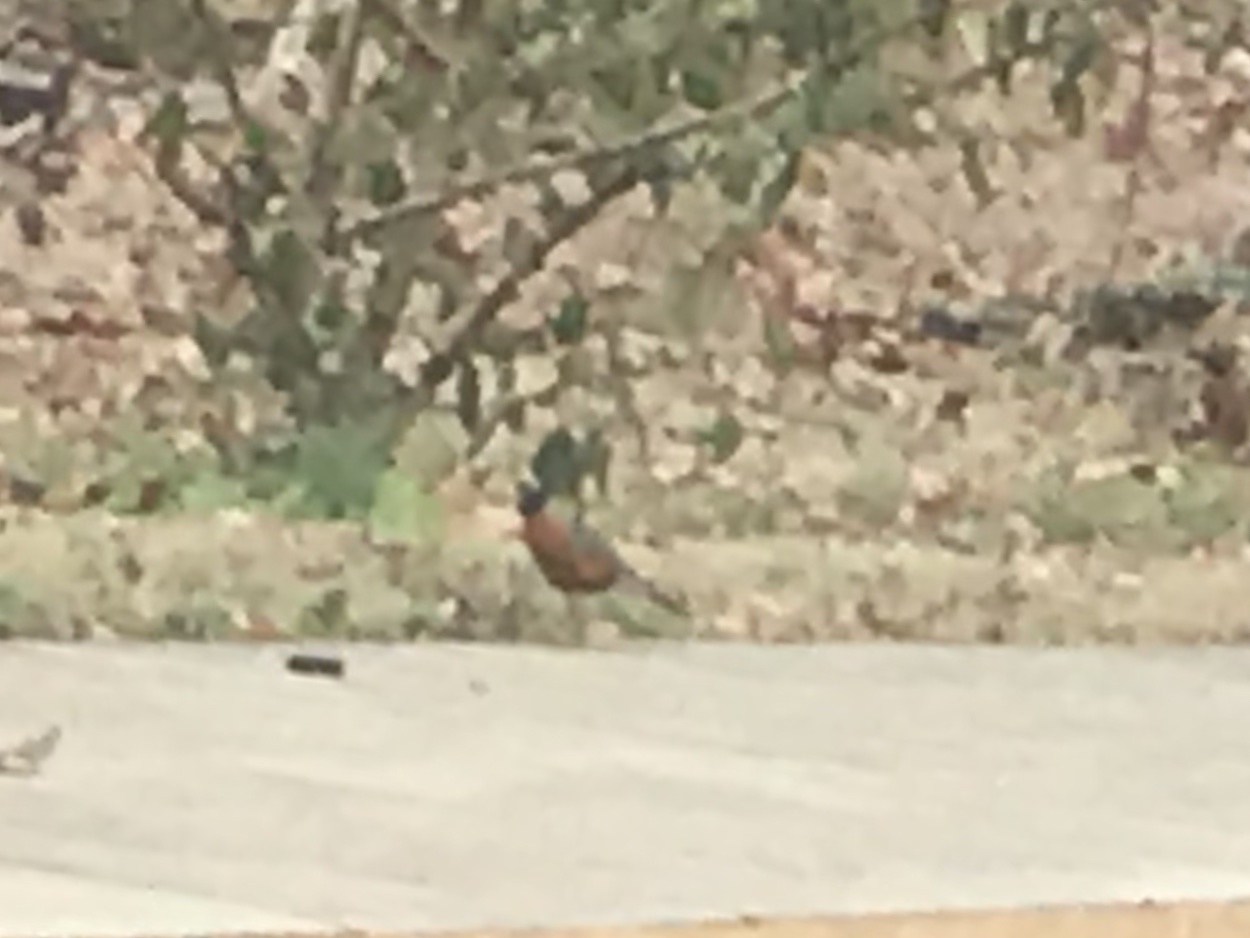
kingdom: Animalia
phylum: Chordata
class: Aves
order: Passeriformes
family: Turdidae
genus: Turdus
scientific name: Turdus migratorius
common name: American robin
